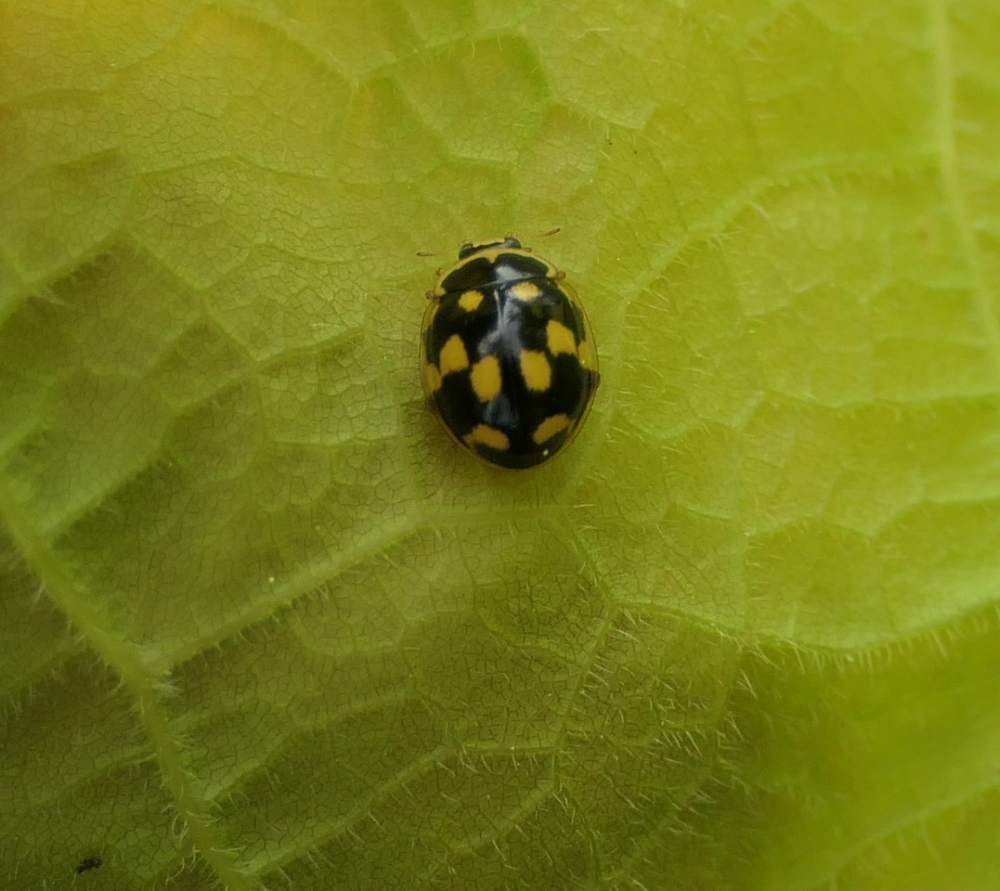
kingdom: Animalia
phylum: Arthropoda
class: Insecta
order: Coleoptera
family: Coccinellidae
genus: Propylaea
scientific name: Propylaea quatuordecimpunctata
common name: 14-spotted ladybird beetle
